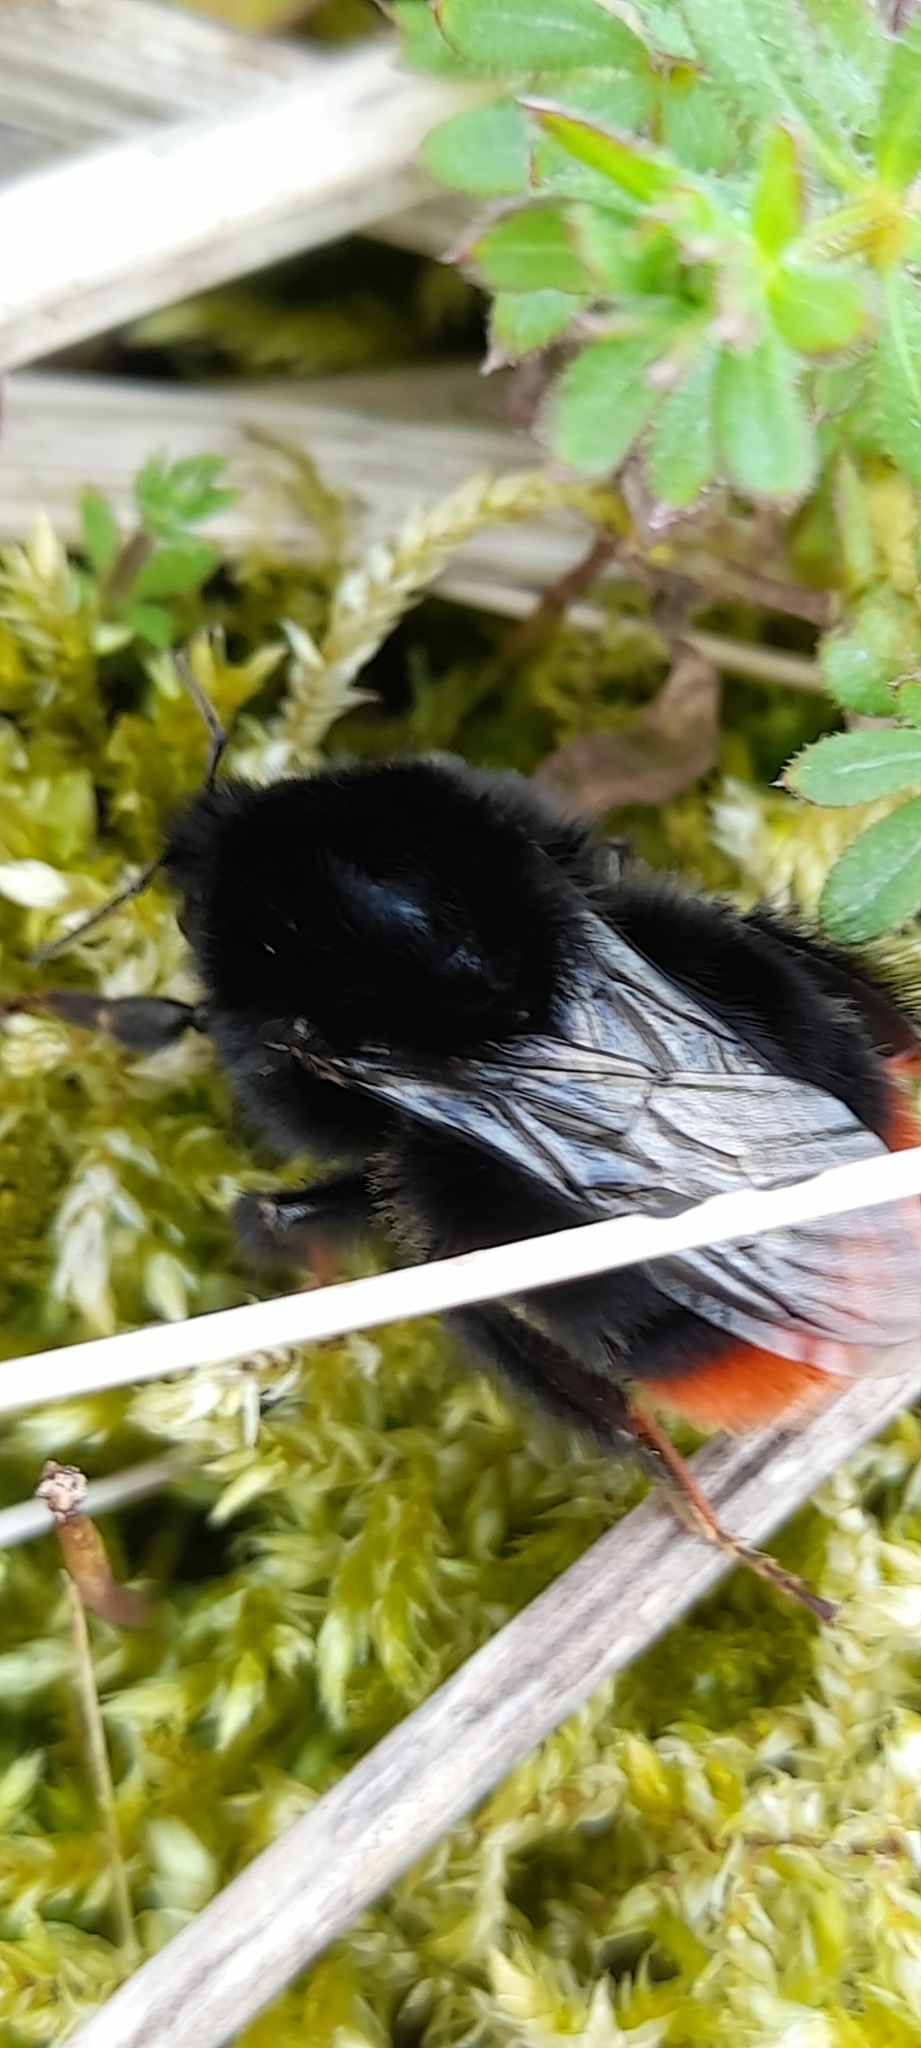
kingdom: Animalia
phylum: Arthropoda
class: Insecta
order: Hymenoptera
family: Apidae
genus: Bombus
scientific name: Bombus lapidarius
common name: Large red-tailed humble-bee
